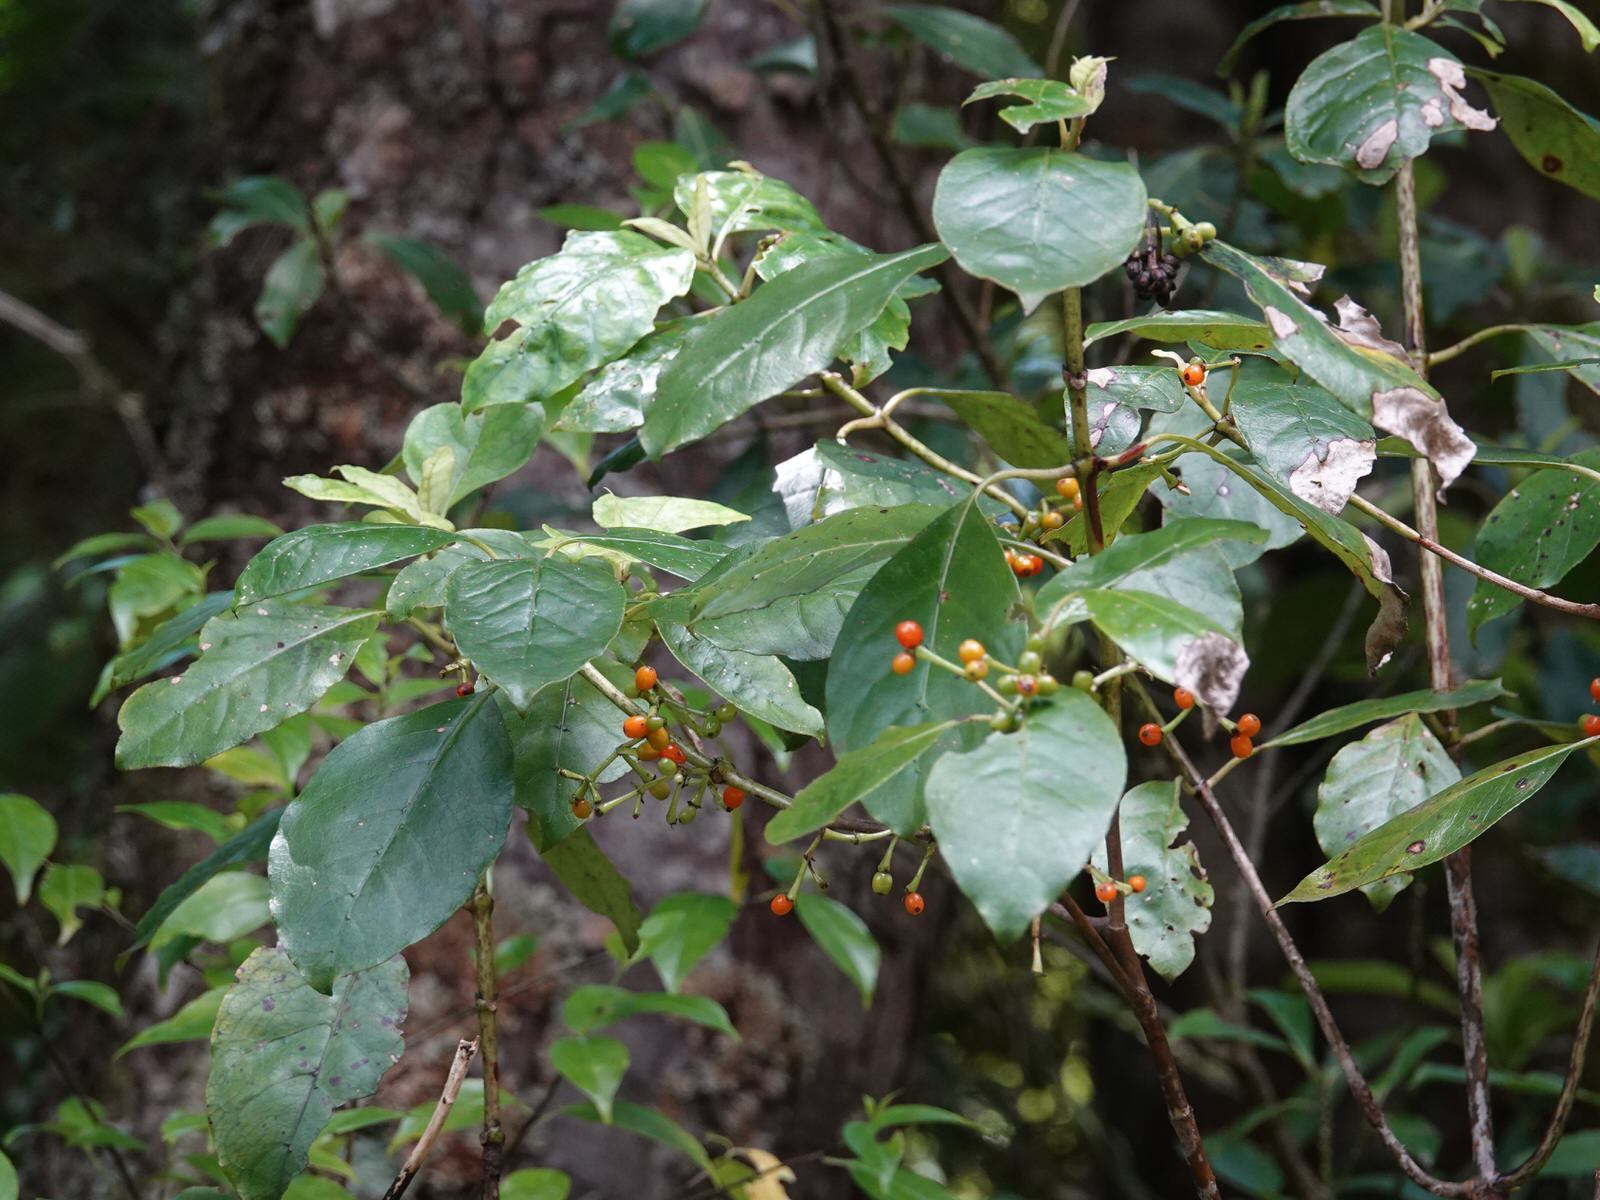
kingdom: Plantae
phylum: Tracheophyta
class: Magnoliopsida
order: Gentianales
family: Rubiaceae
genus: Coprosma
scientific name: Coprosma autumnalis
